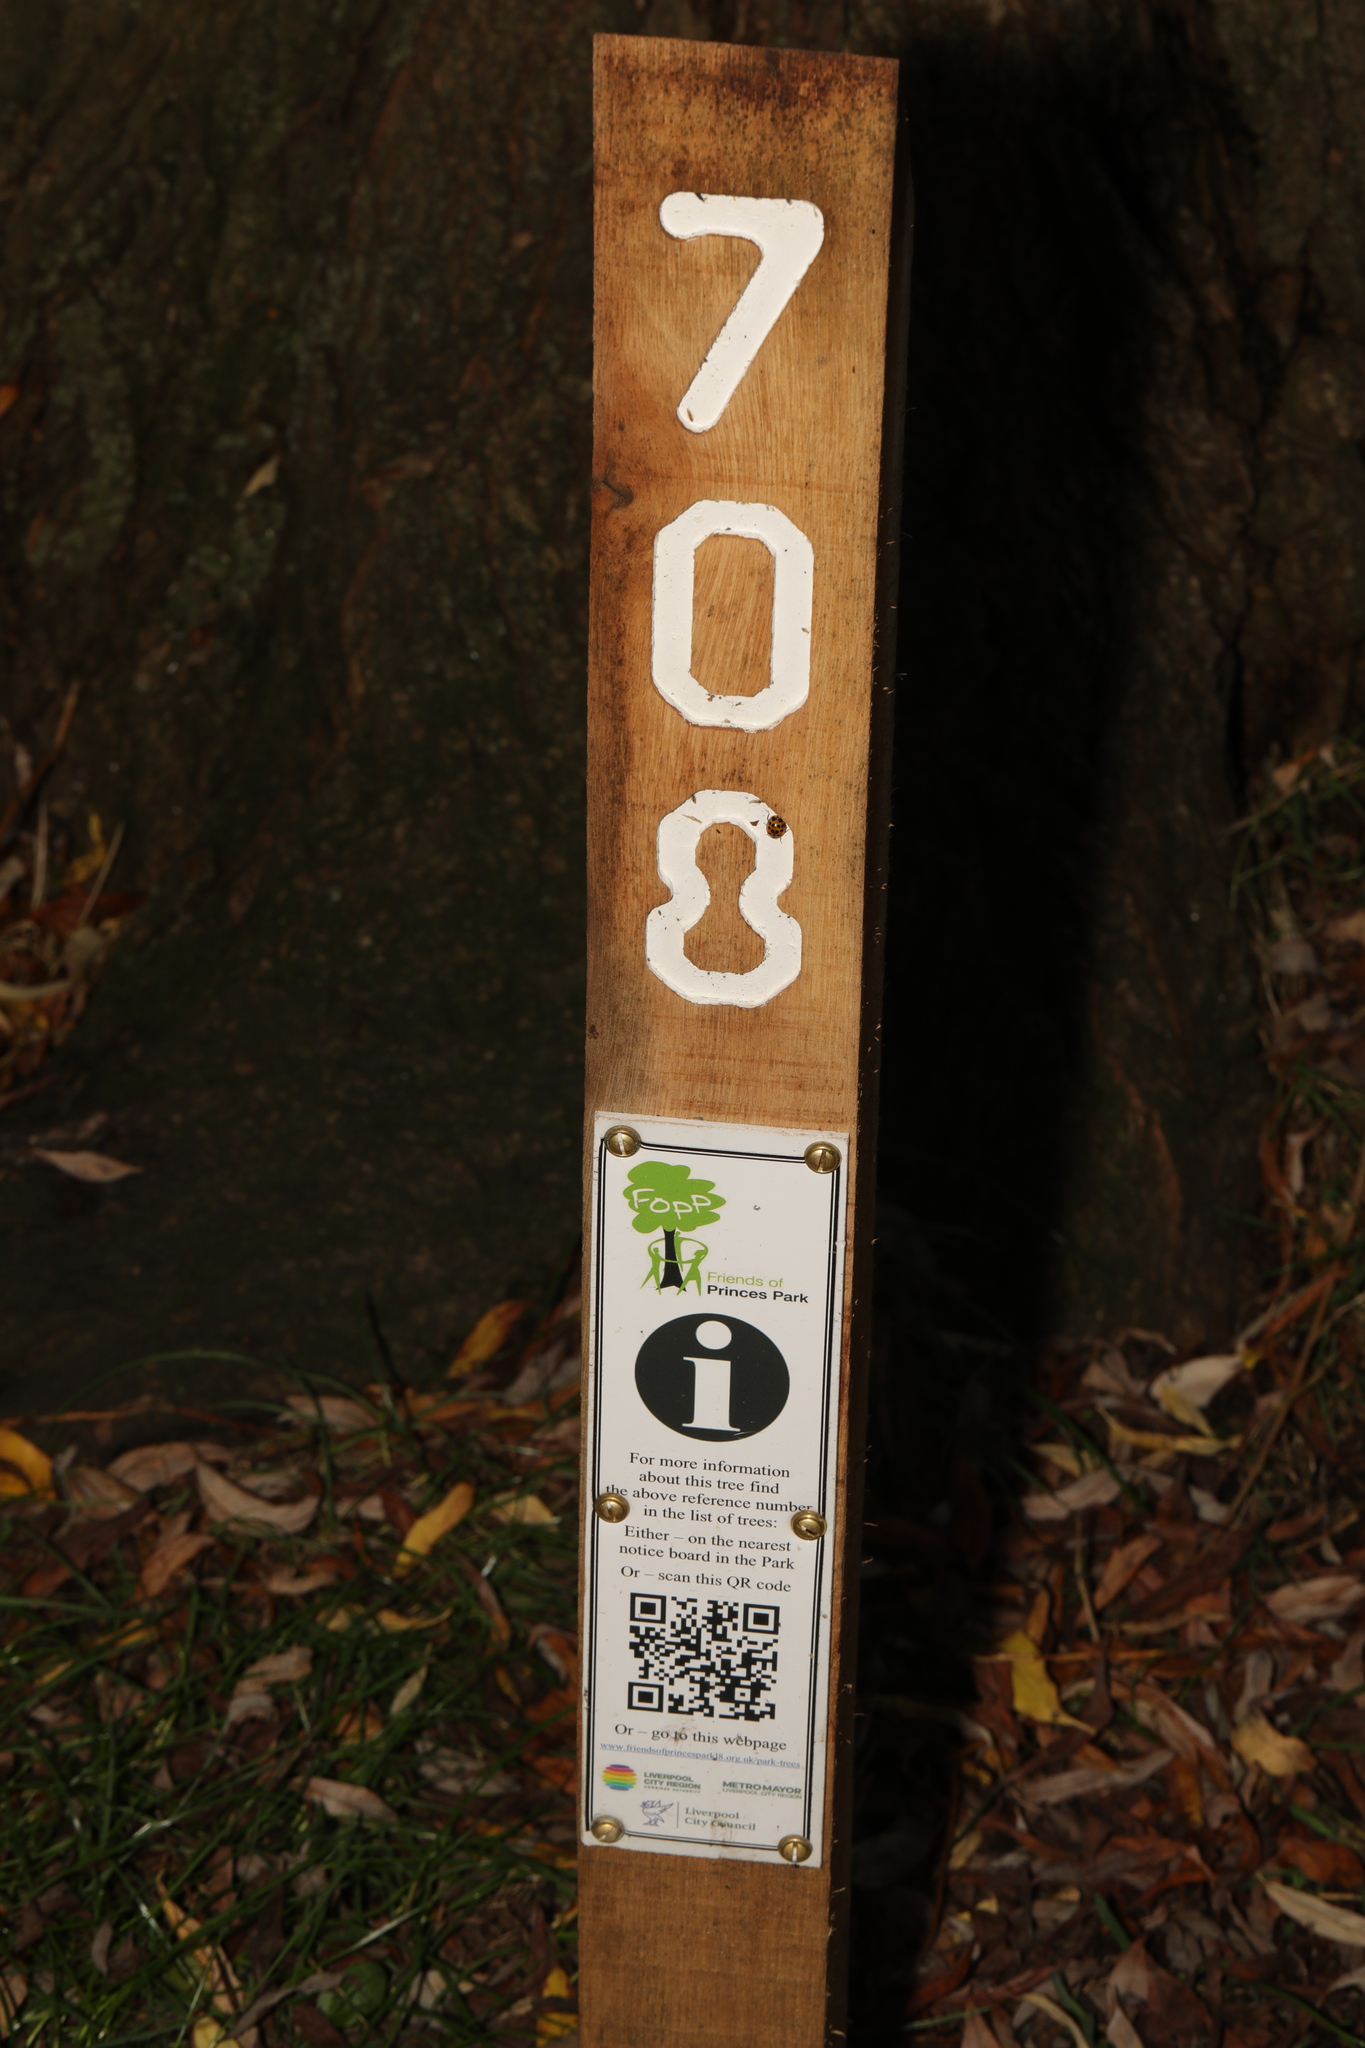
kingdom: Plantae
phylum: Tracheophyta
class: Magnoliopsida
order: Malpighiales
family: Salicaceae
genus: Salix
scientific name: Salix fragilis
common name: Crack willow
